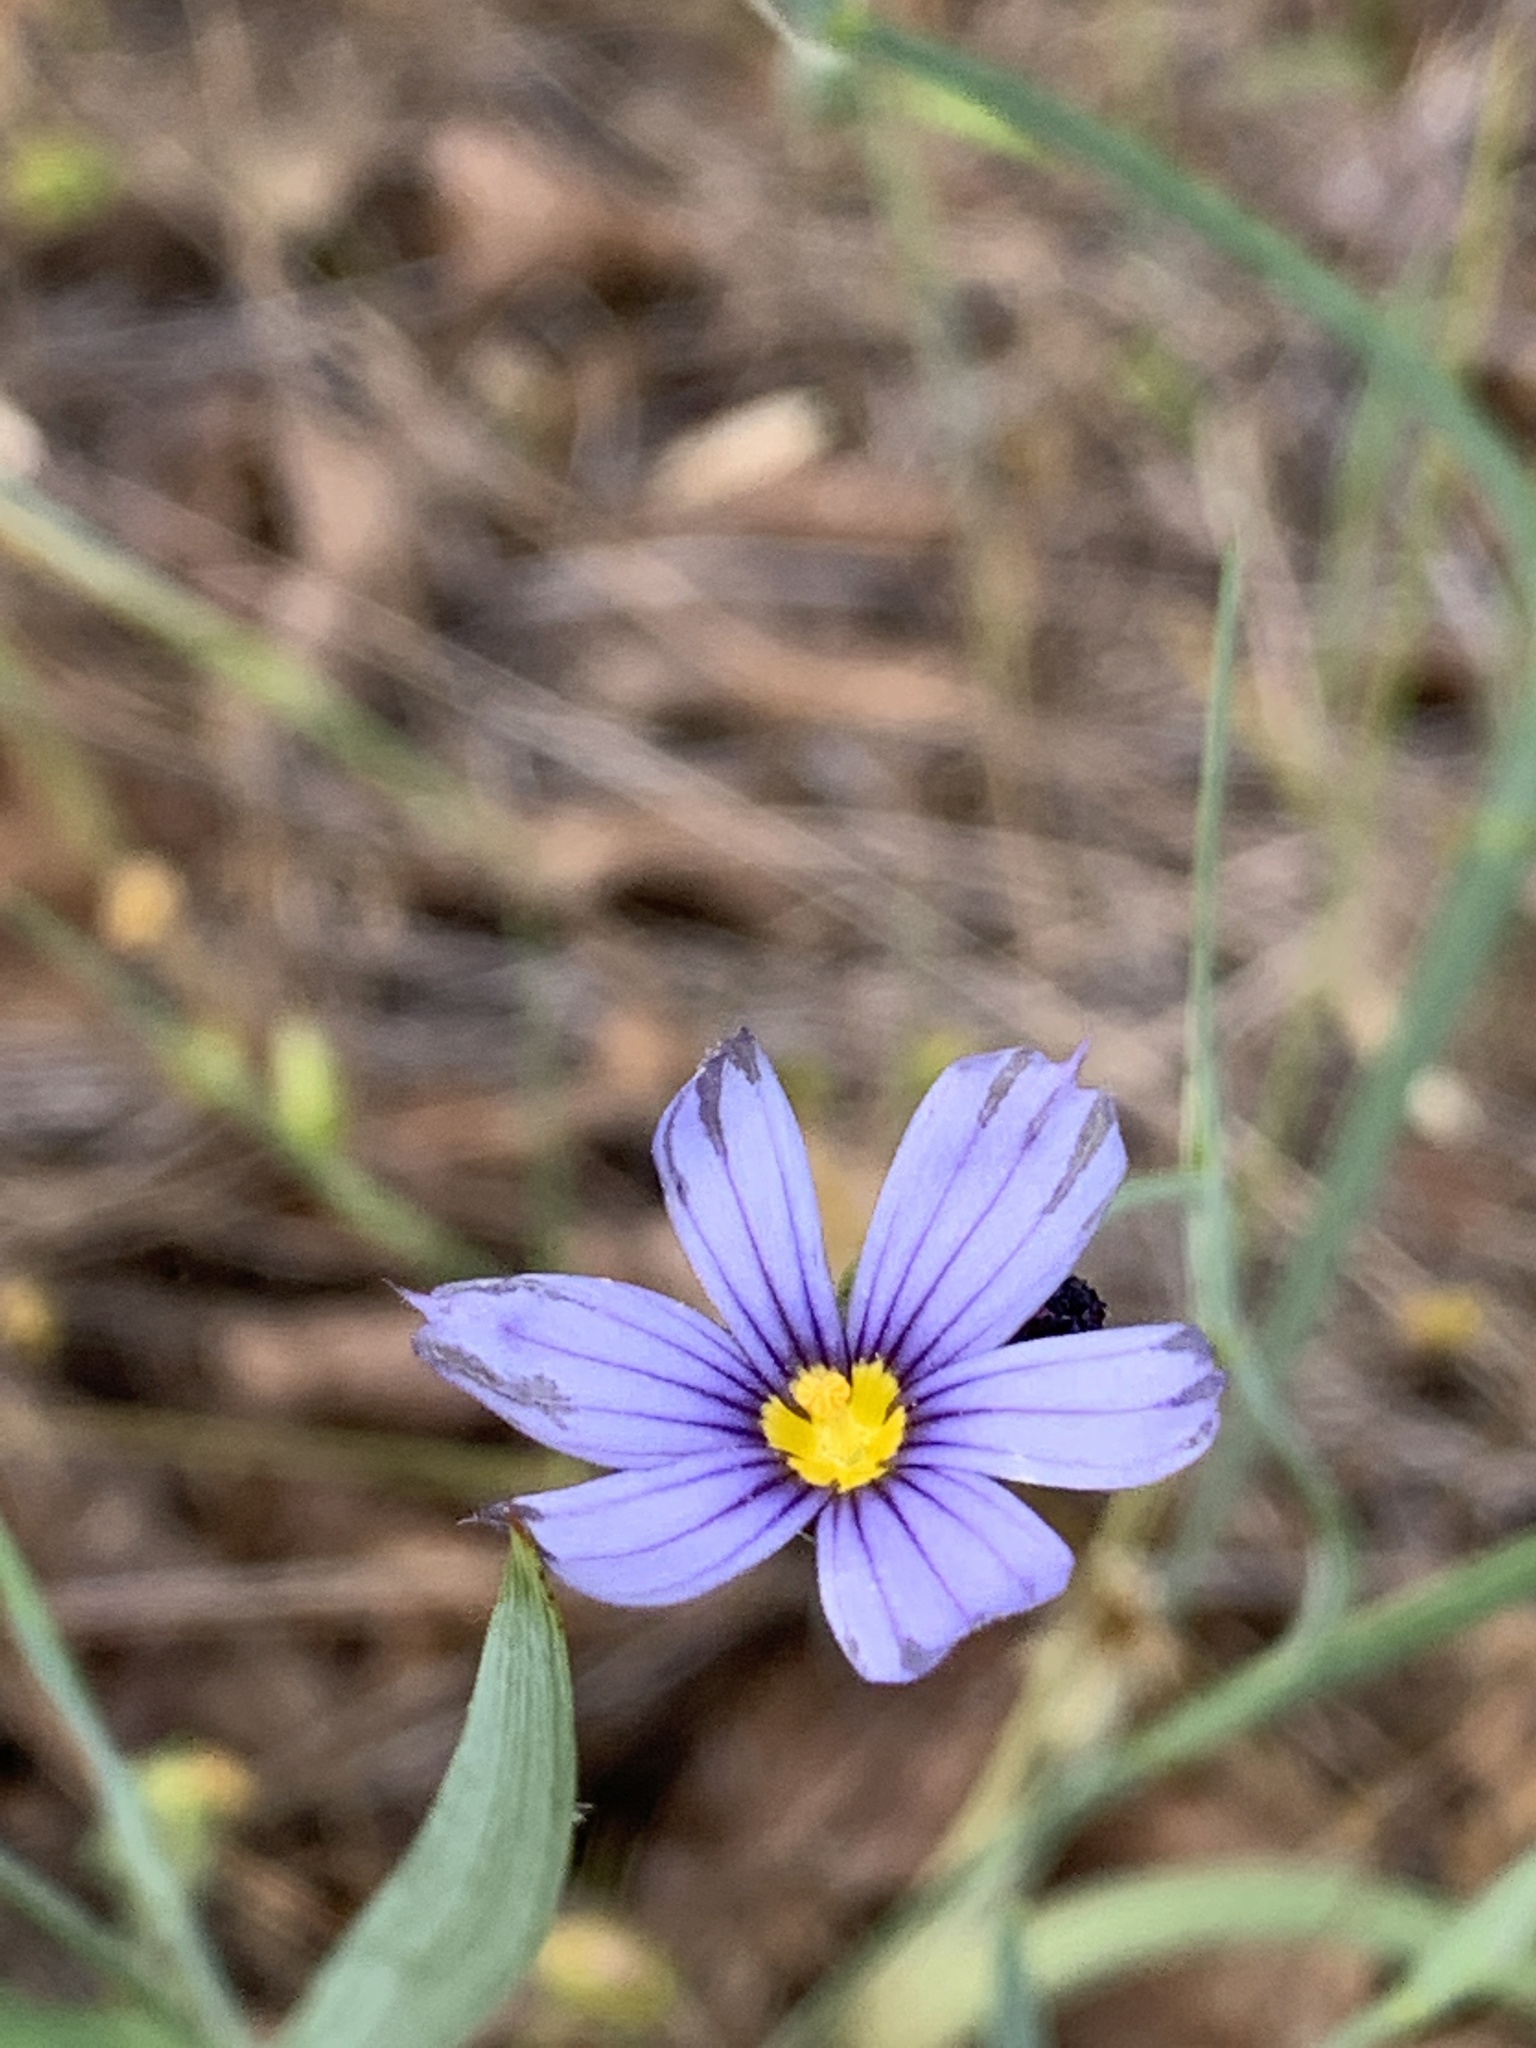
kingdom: Plantae
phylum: Tracheophyta
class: Liliopsida
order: Asparagales
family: Iridaceae
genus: Sisyrinchium
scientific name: Sisyrinchium bellum
